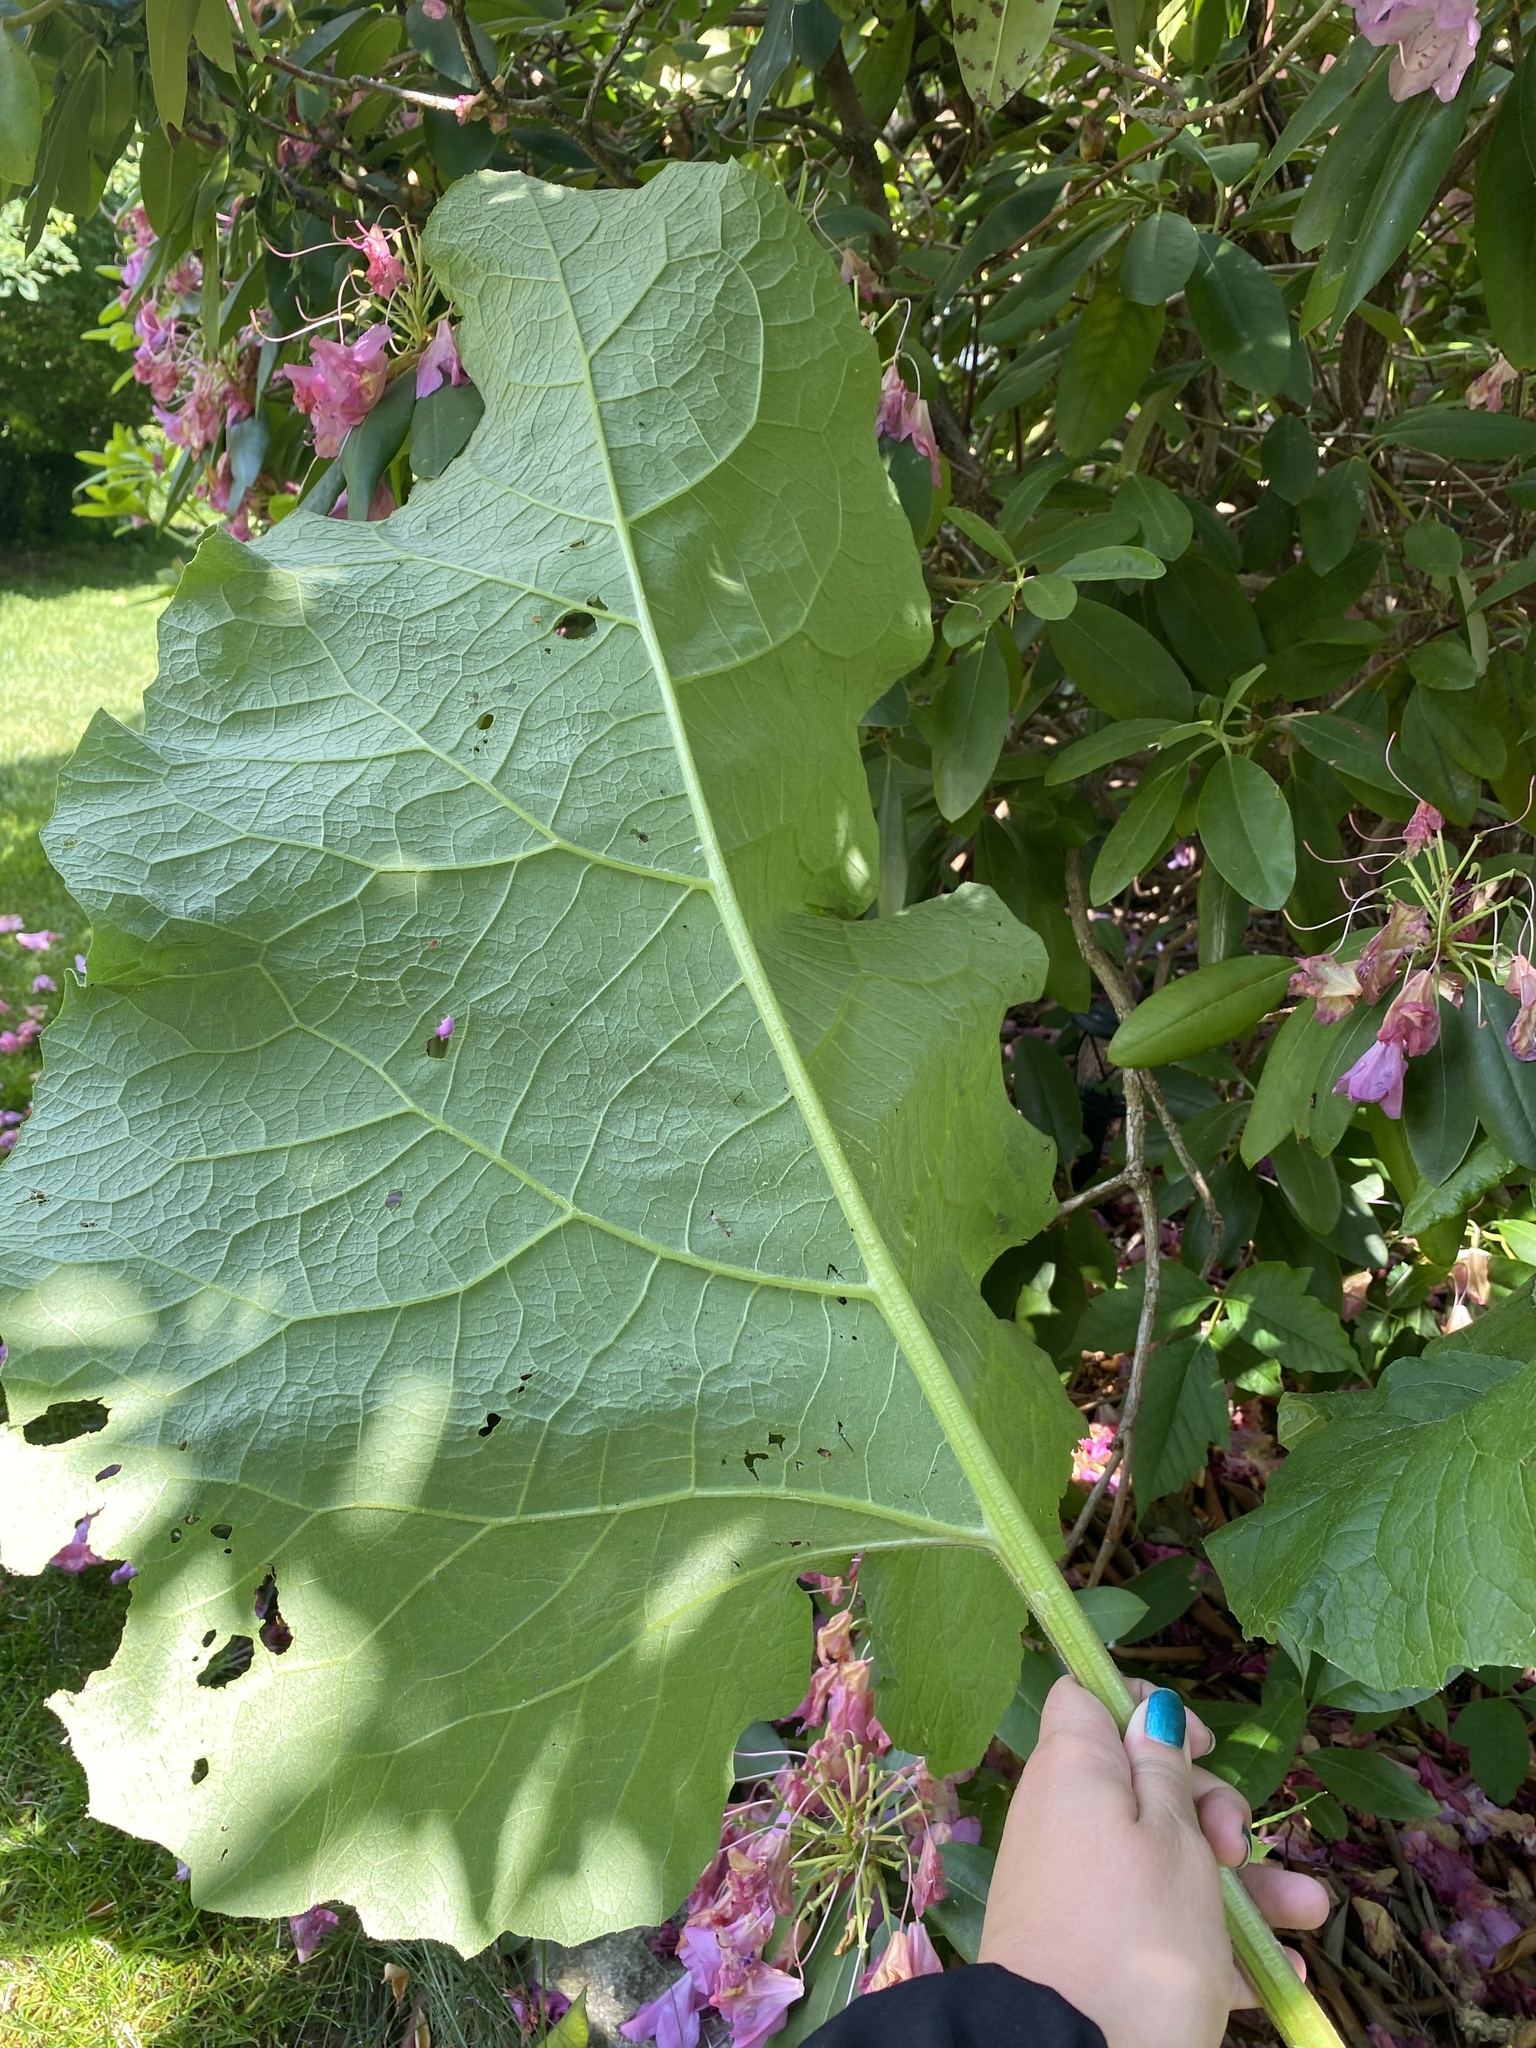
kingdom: Plantae
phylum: Tracheophyta
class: Magnoliopsida
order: Asterales
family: Asteraceae
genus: Arctium
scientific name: Arctium
